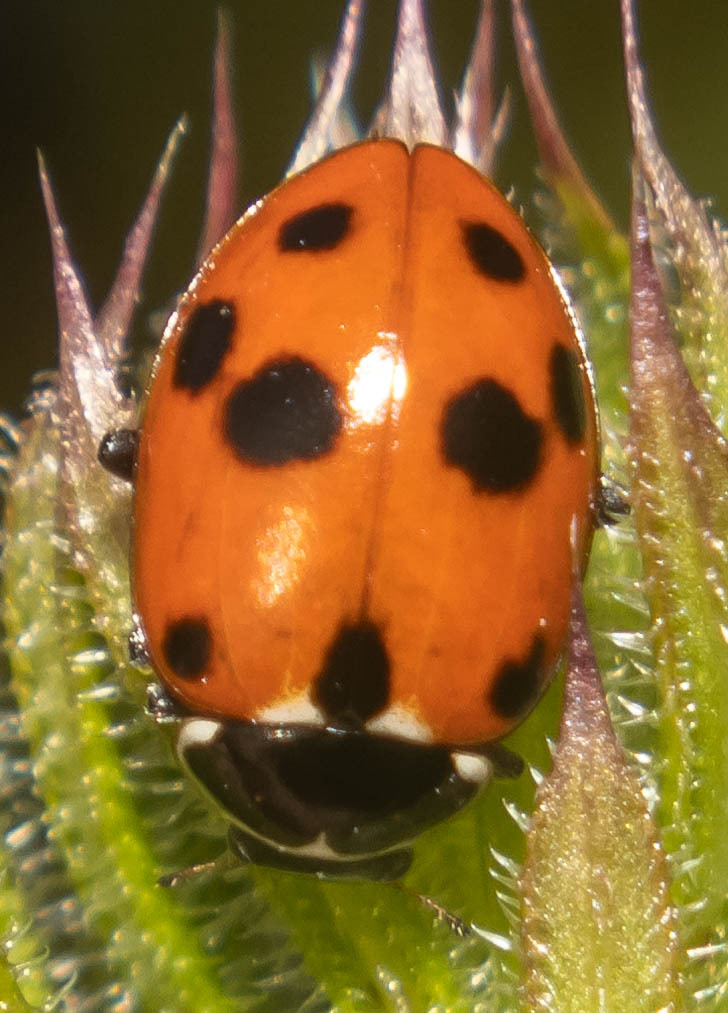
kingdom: Animalia
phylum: Arthropoda
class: Insecta
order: Coleoptera
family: Coccinellidae
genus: Hippodamia
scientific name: Hippodamia variegata
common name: Ladybird beetle
